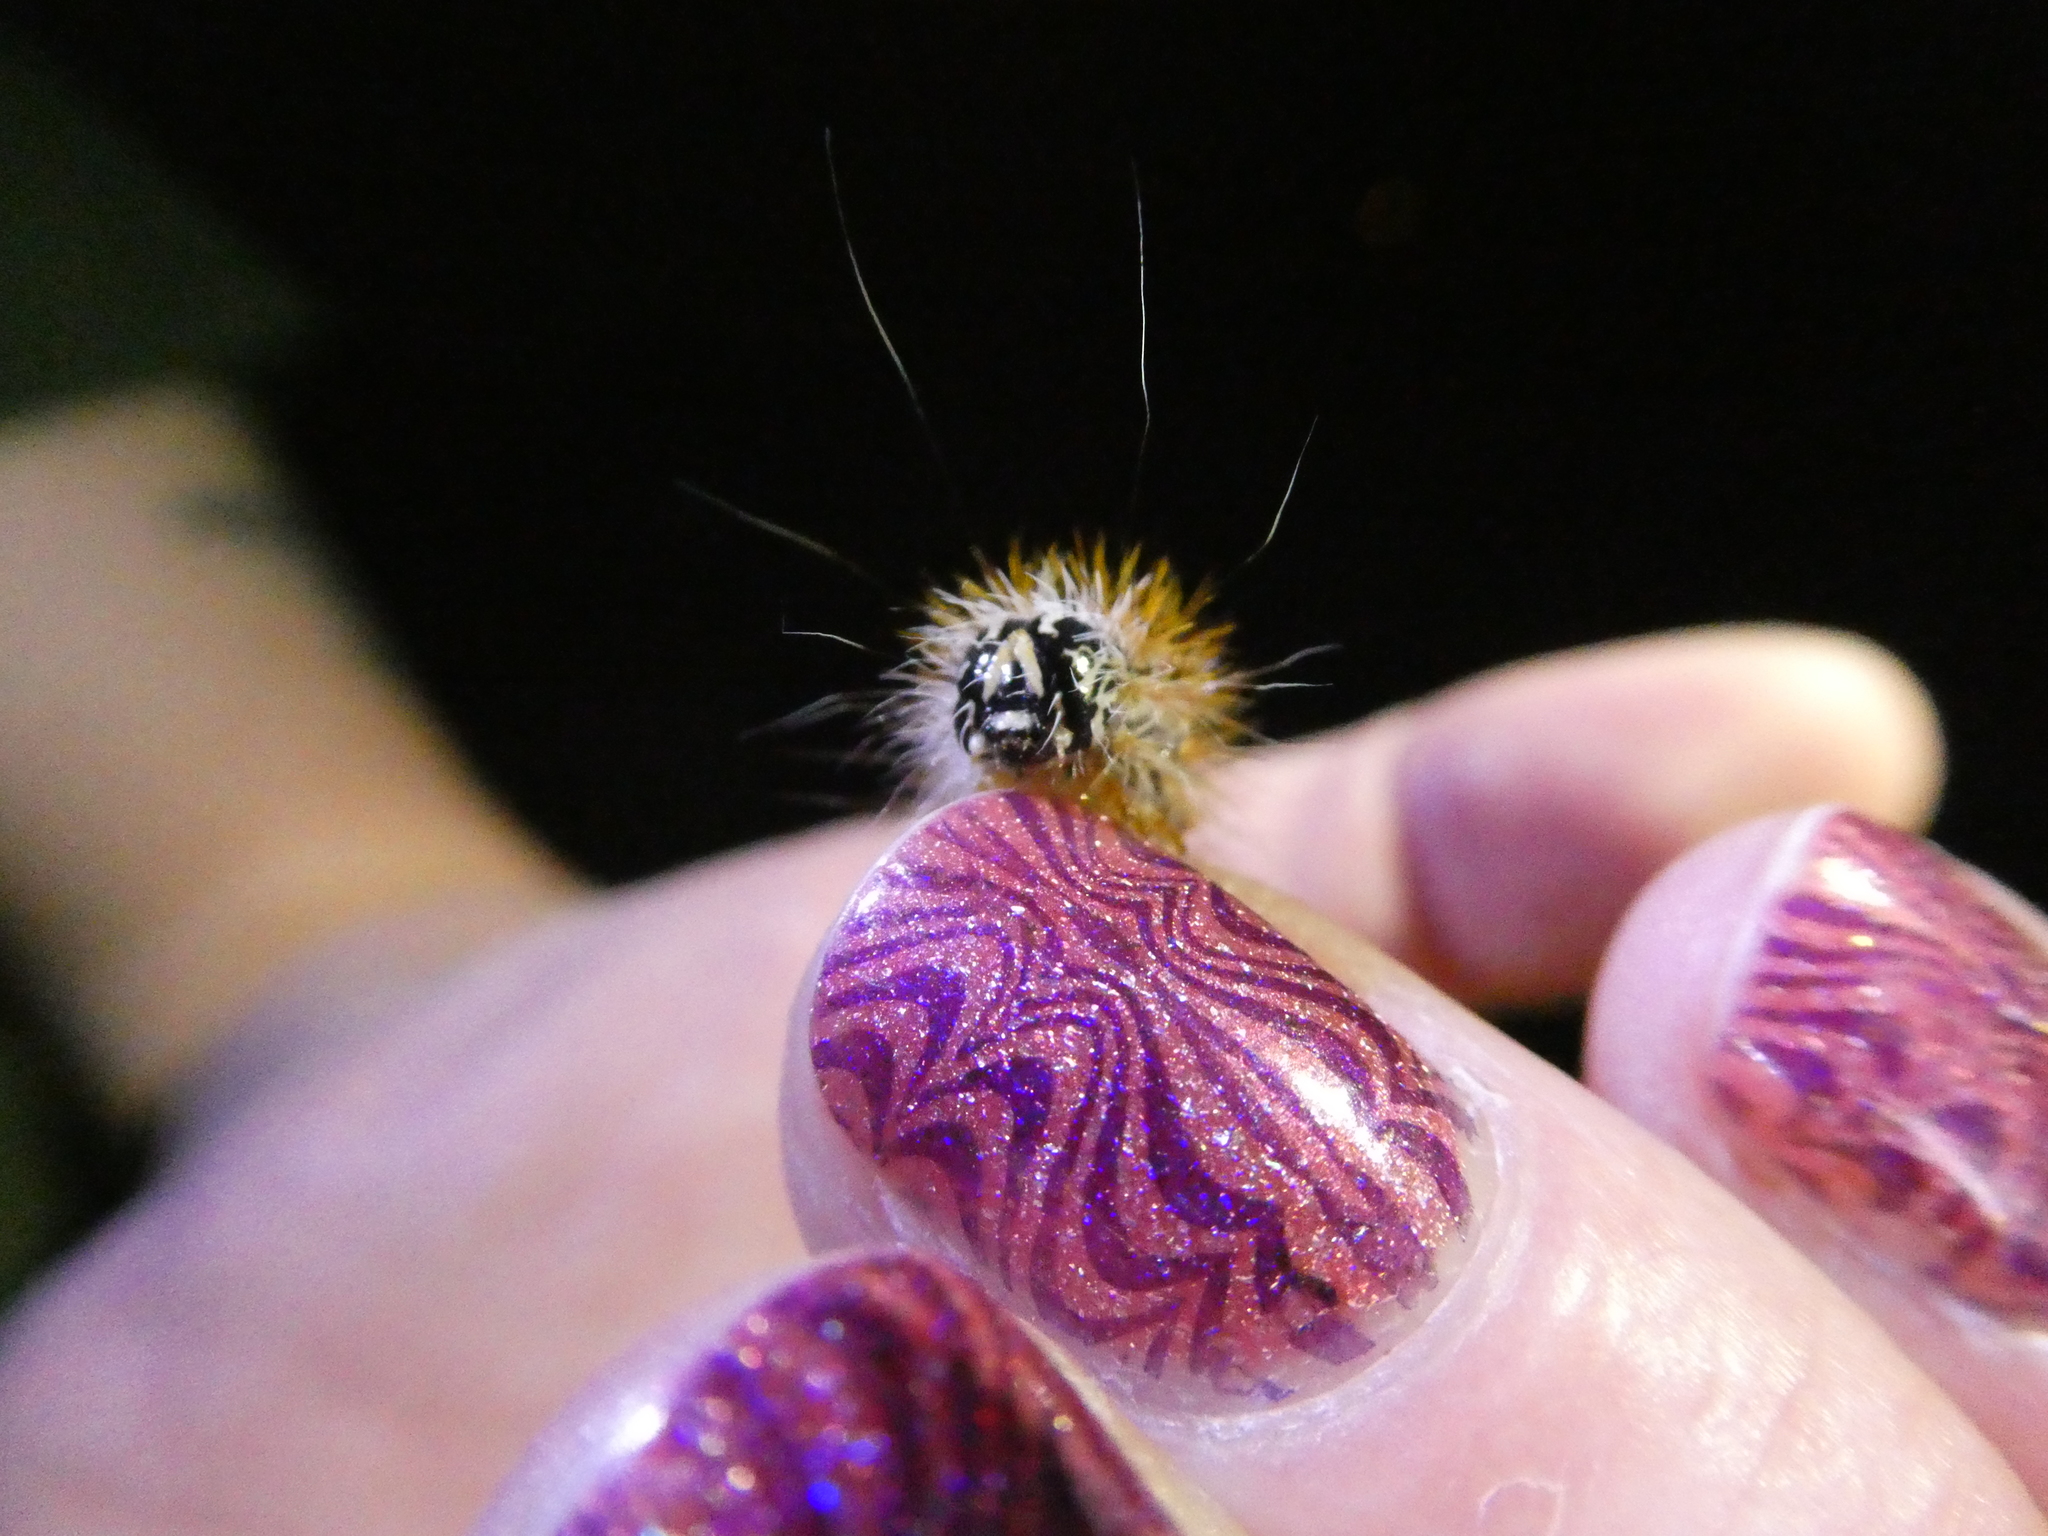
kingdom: Animalia
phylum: Arthropoda
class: Insecta
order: Lepidoptera
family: Noctuidae
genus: Acronicta
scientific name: Acronicta insularis
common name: Henry's marsh moth
